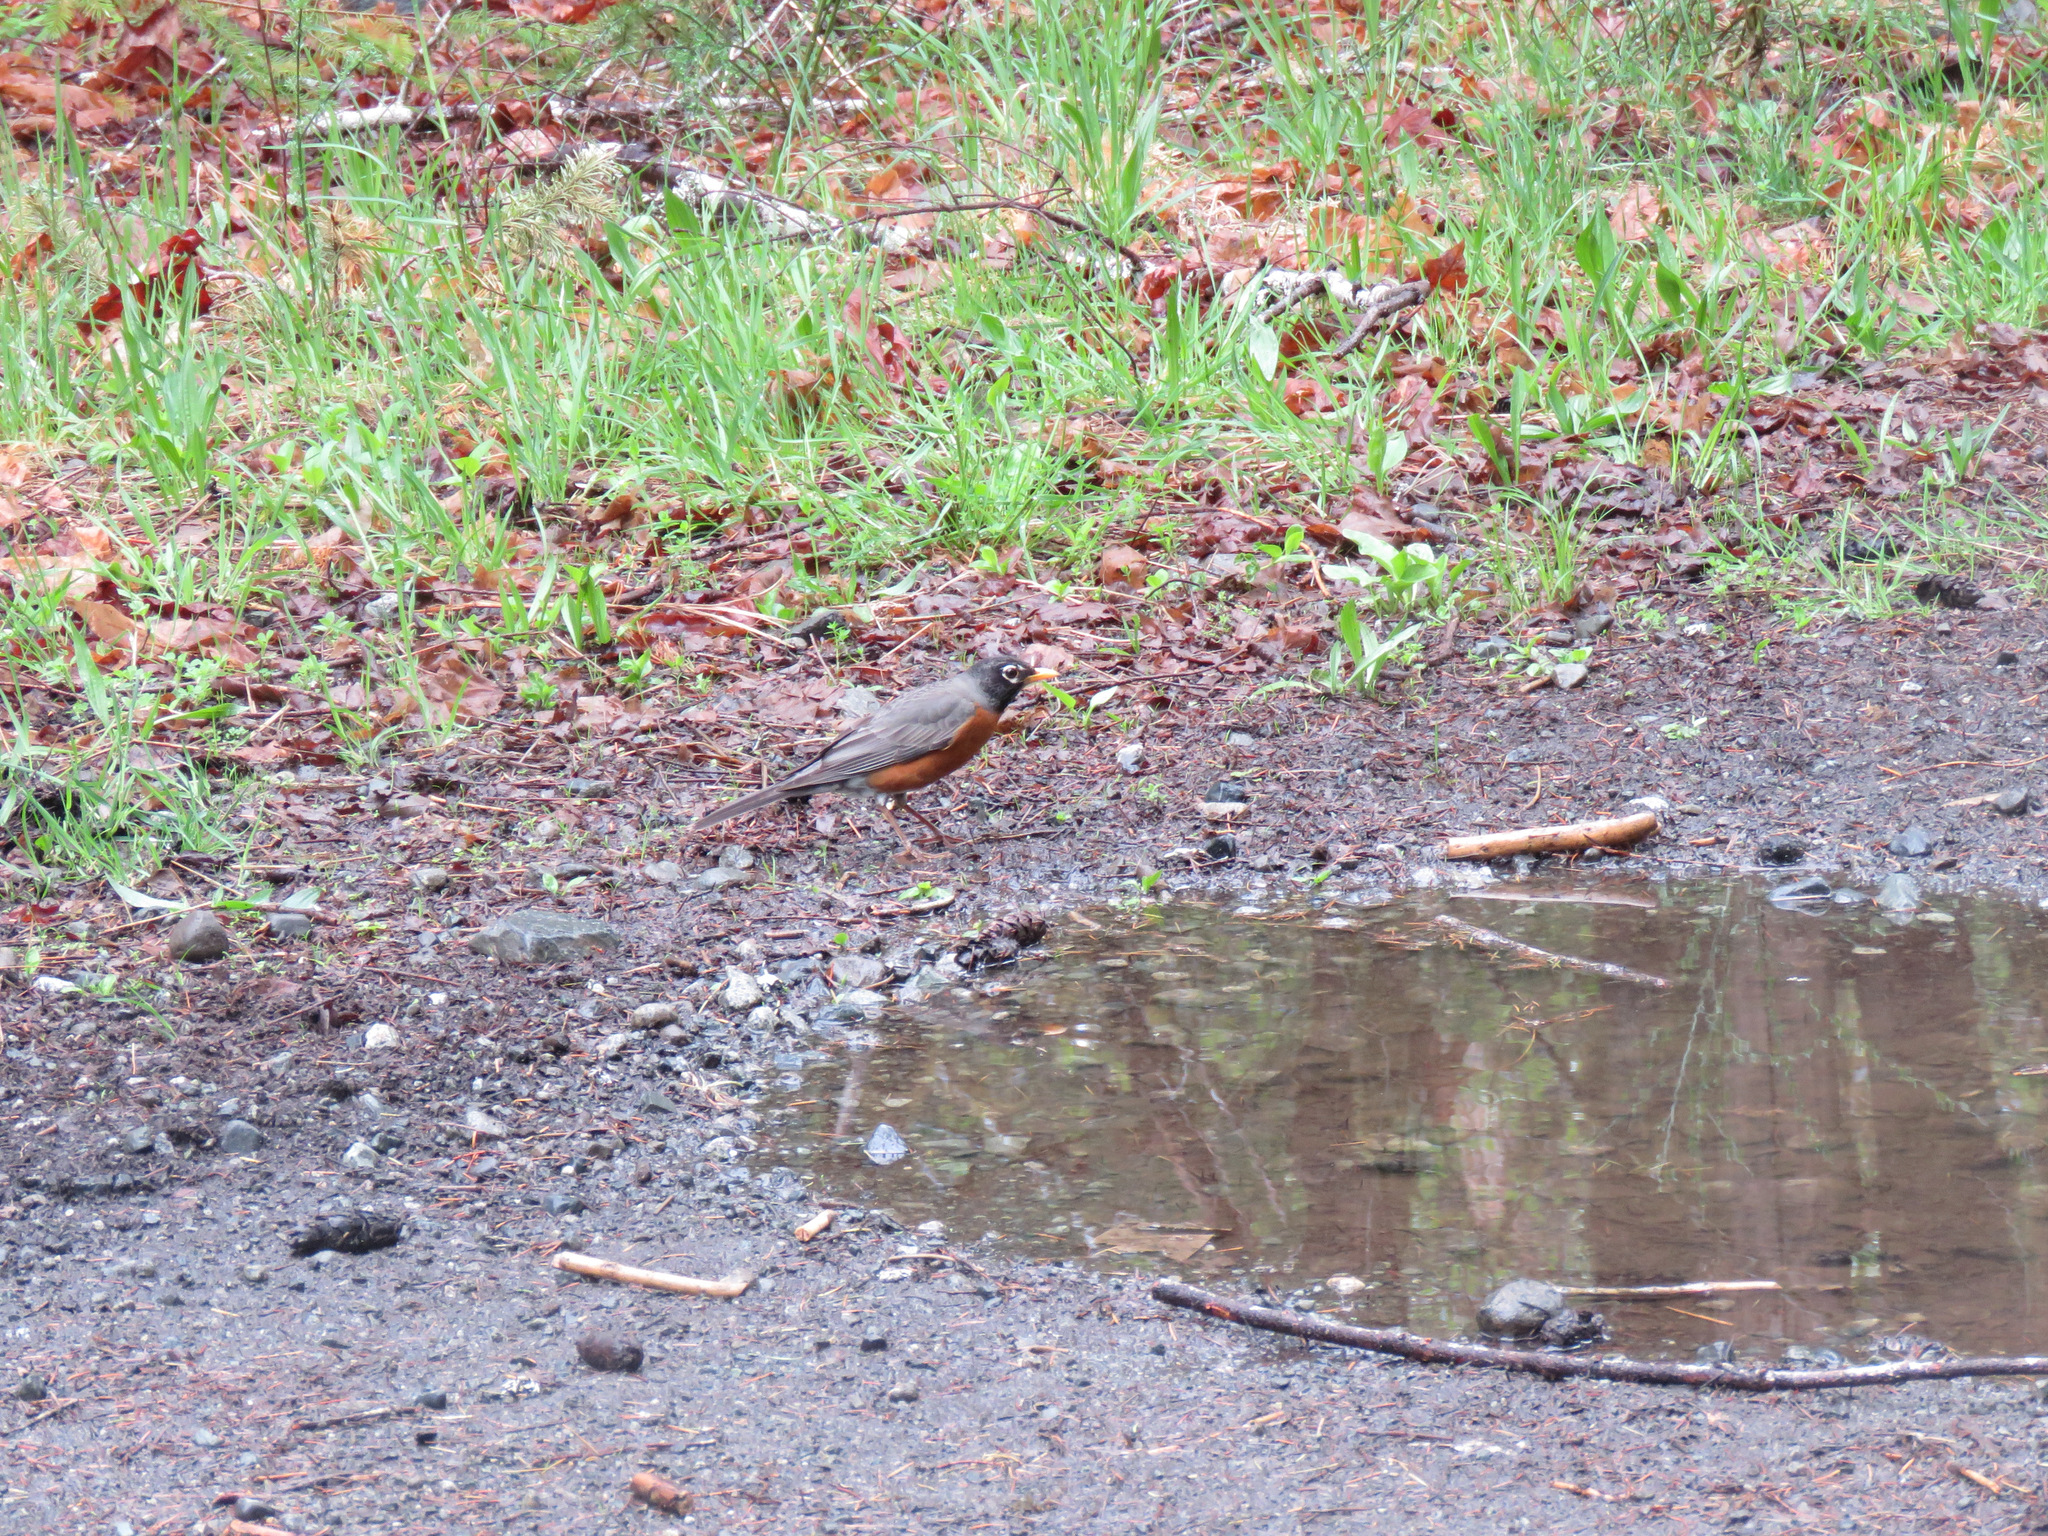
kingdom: Animalia
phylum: Chordata
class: Aves
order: Passeriformes
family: Turdidae
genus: Turdus
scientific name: Turdus migratorius
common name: American robin
